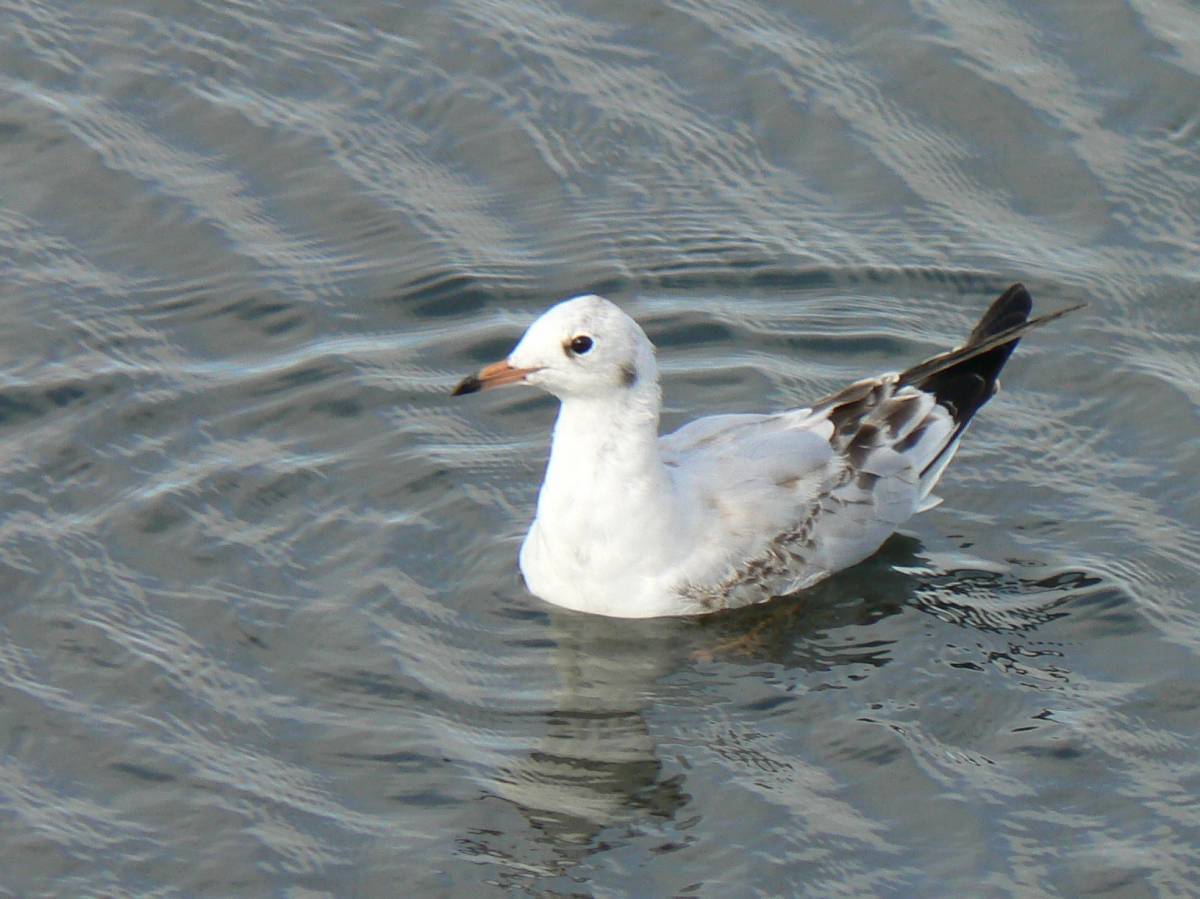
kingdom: Animalia
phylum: Chordata
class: Aves
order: Charadriiformes
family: Laridae
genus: Chroicocephalus
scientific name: Chroicocephalus ridibundus
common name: Black-headed gull
